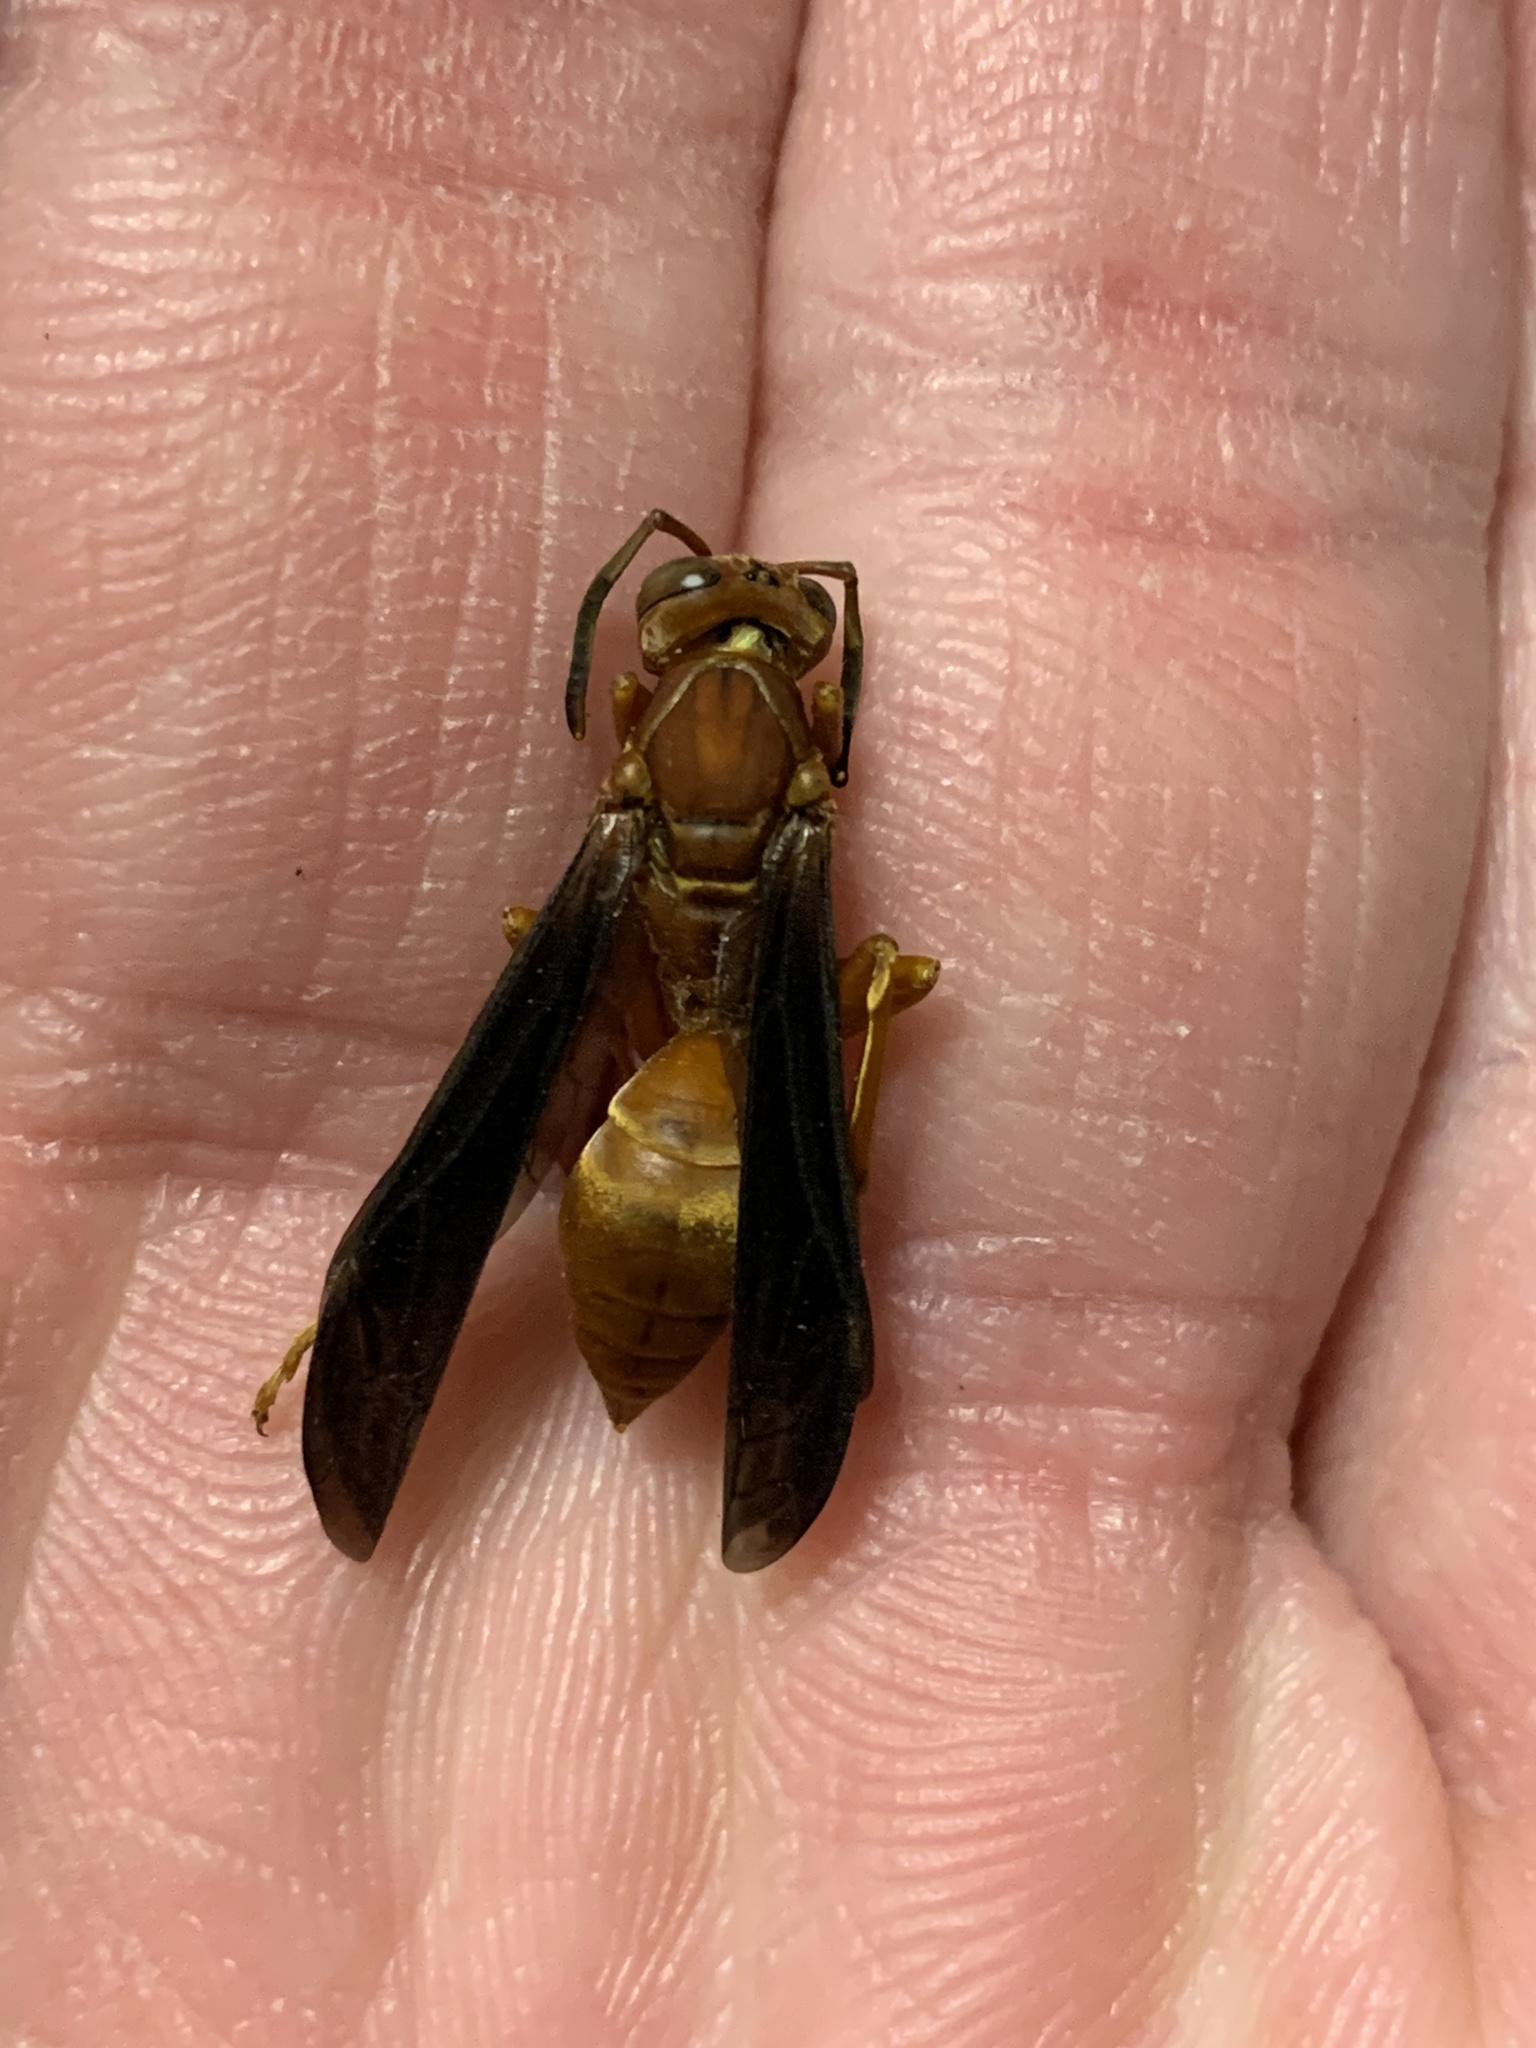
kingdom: Animalia
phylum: Arthropoda
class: Insecta
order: Hymenoptera
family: Eumenidae
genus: Polistes
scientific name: Polistes carolina
